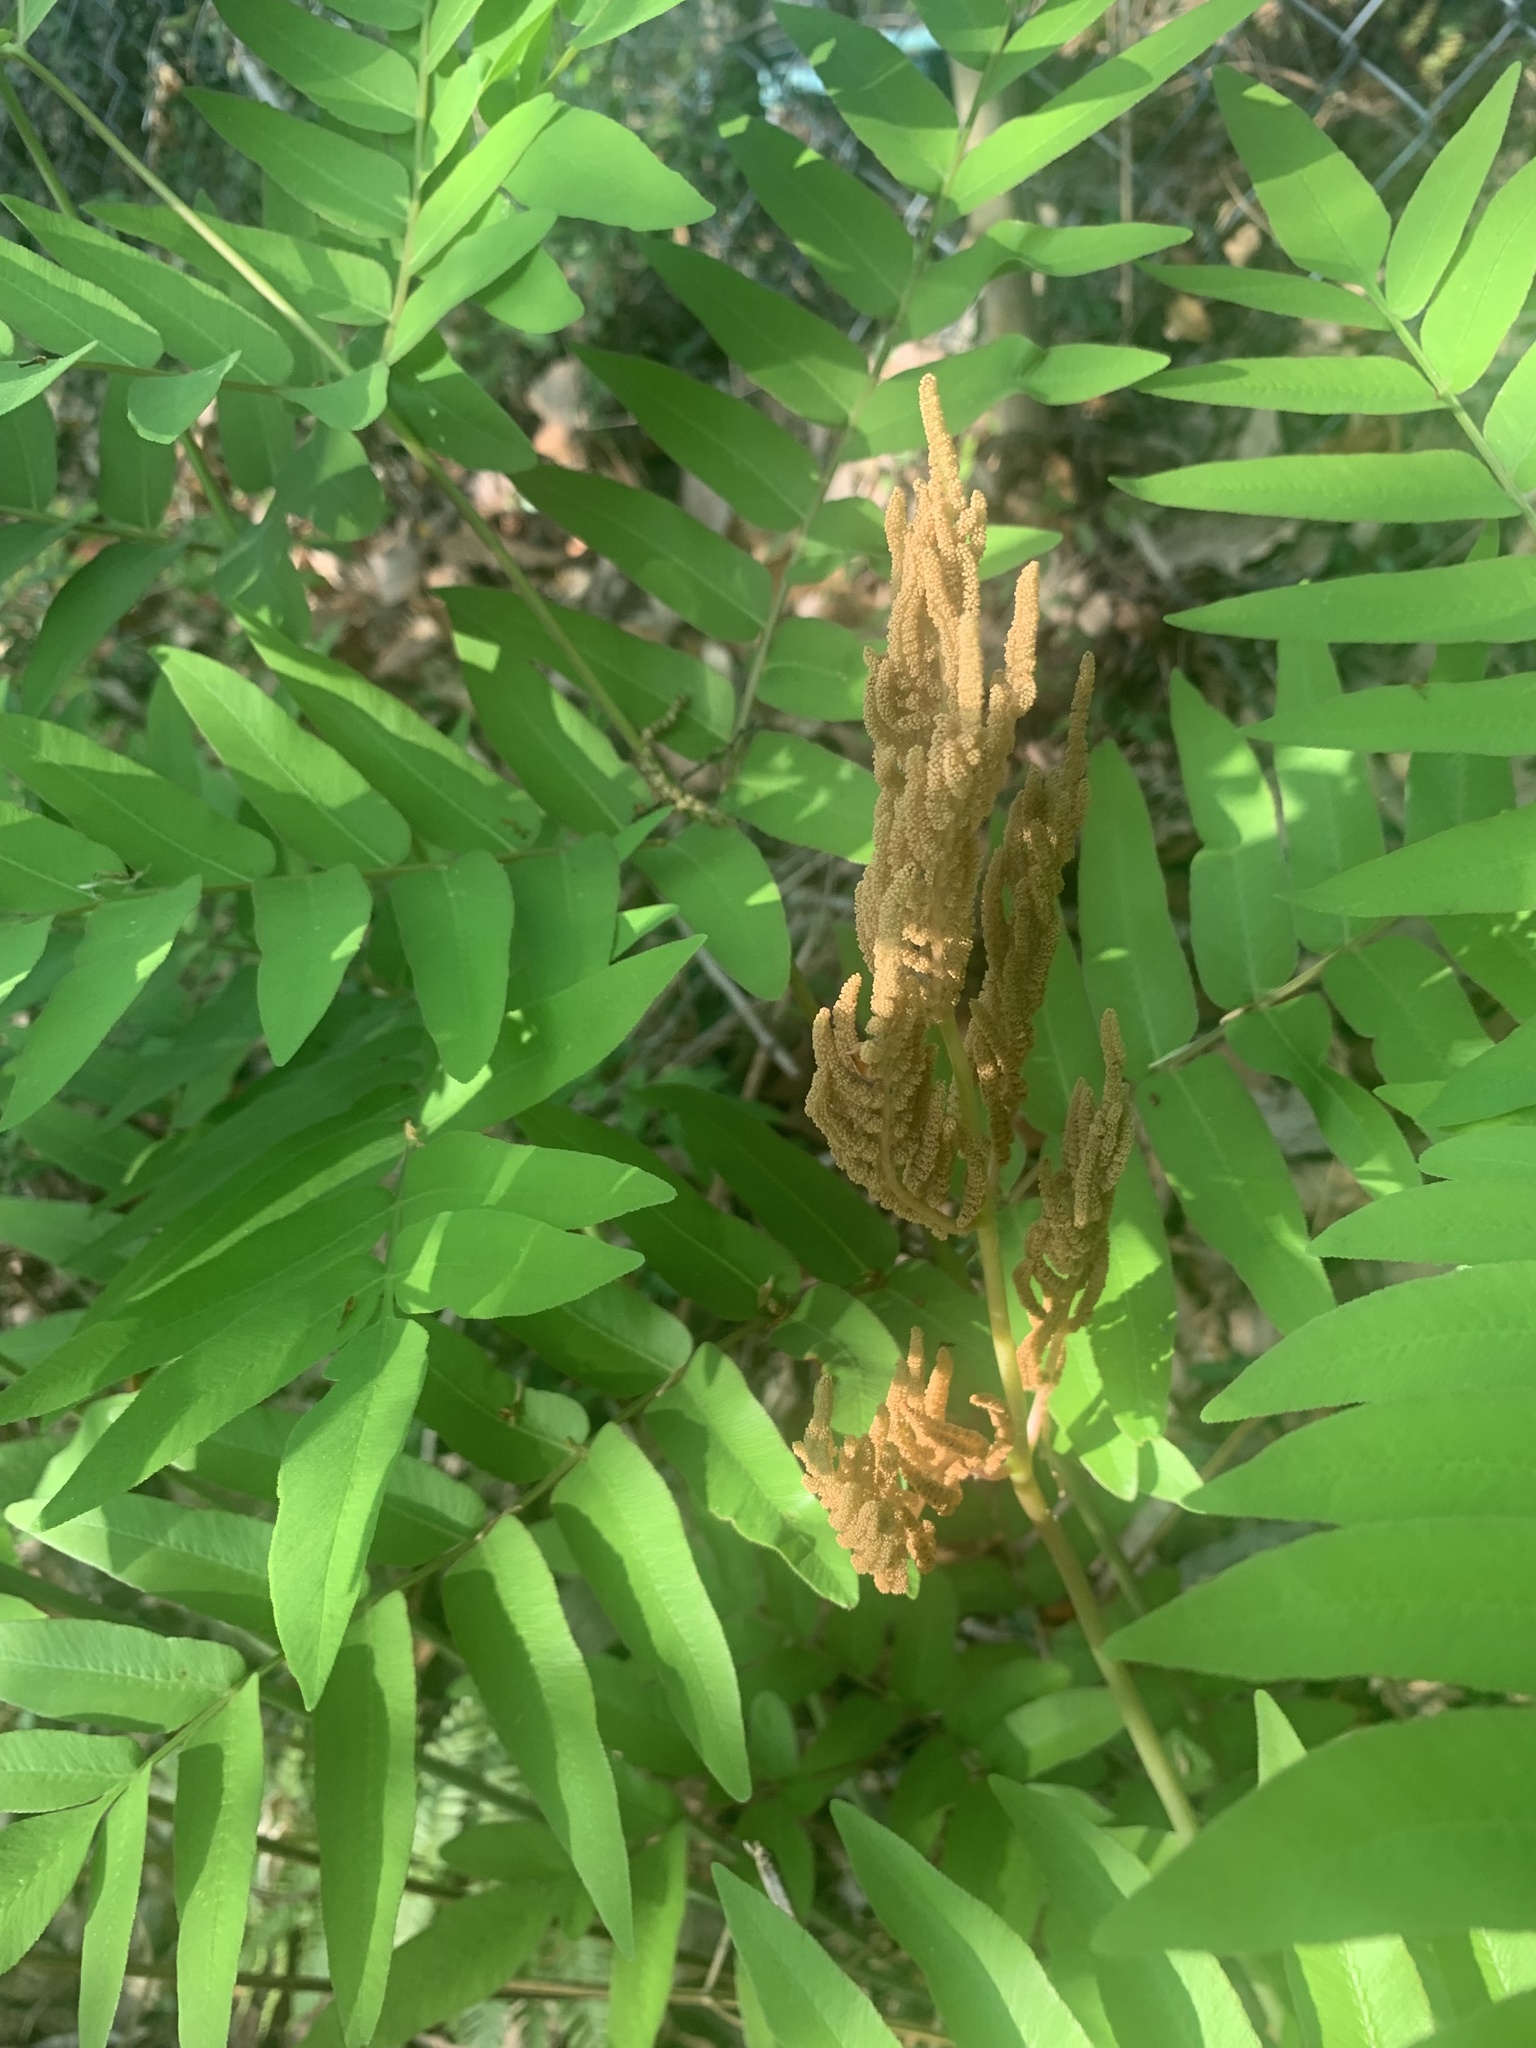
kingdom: Plantae
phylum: Tracheophyta
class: Polypodiopsida
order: Osmundales
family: Osmundaceae
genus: Osmunda
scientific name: Osmunda japonica
